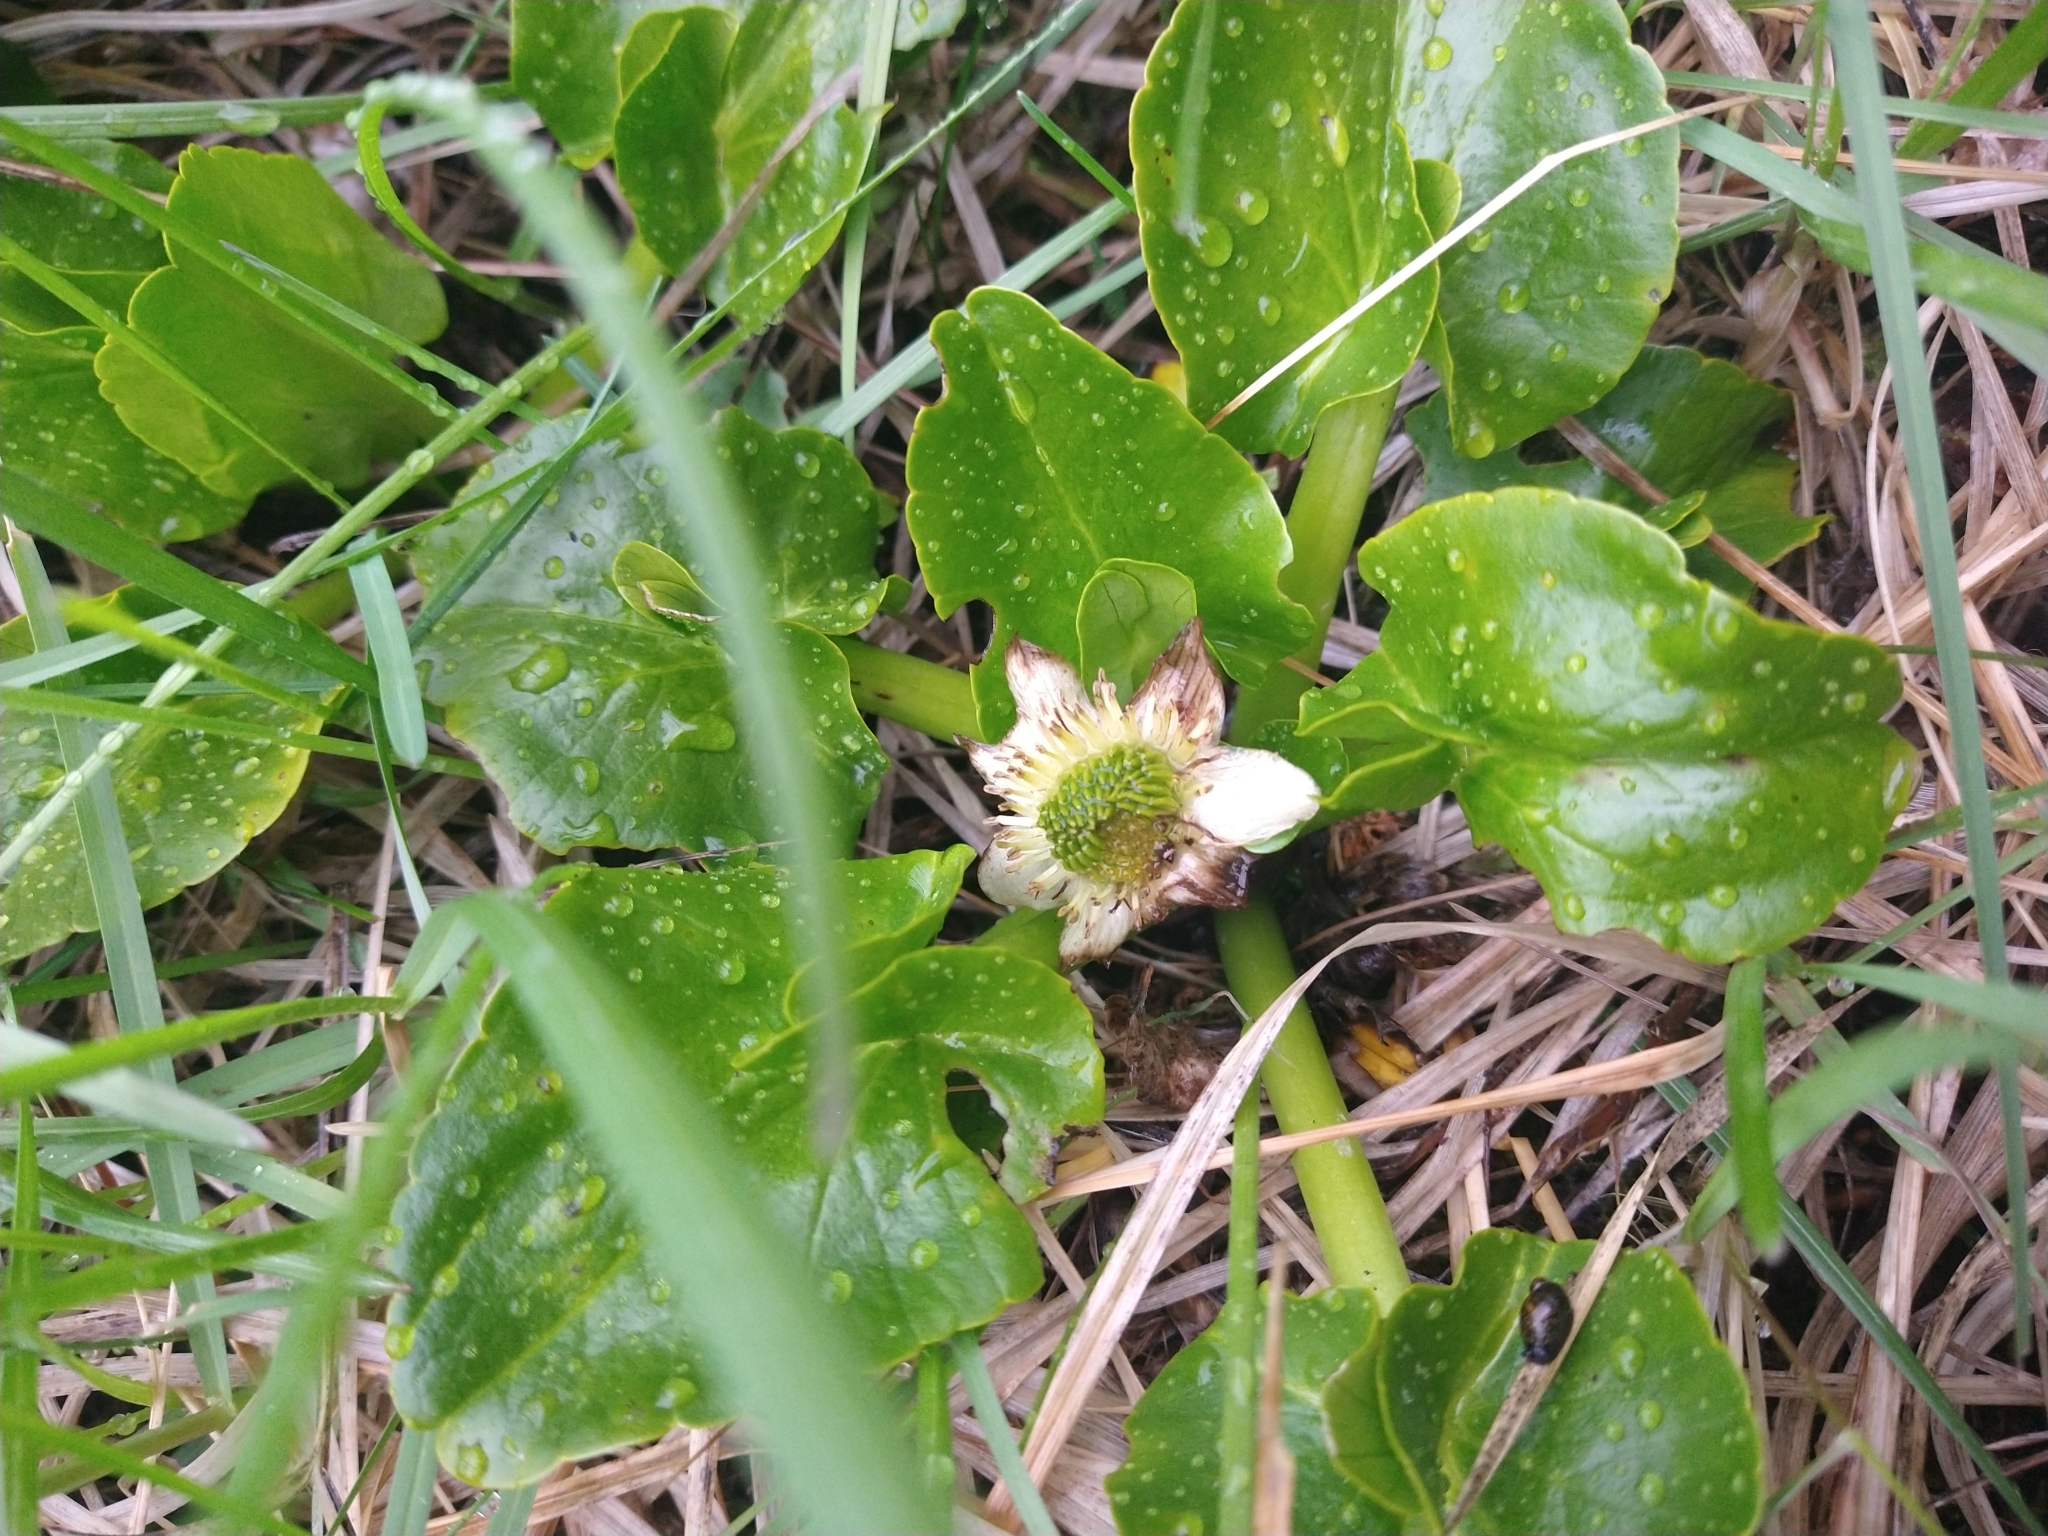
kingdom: Plantae
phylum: Tracheophyta
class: Magnoliopsida
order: Ranunculales
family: Ranunculaceae
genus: Caltha
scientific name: Caltha sagittata
